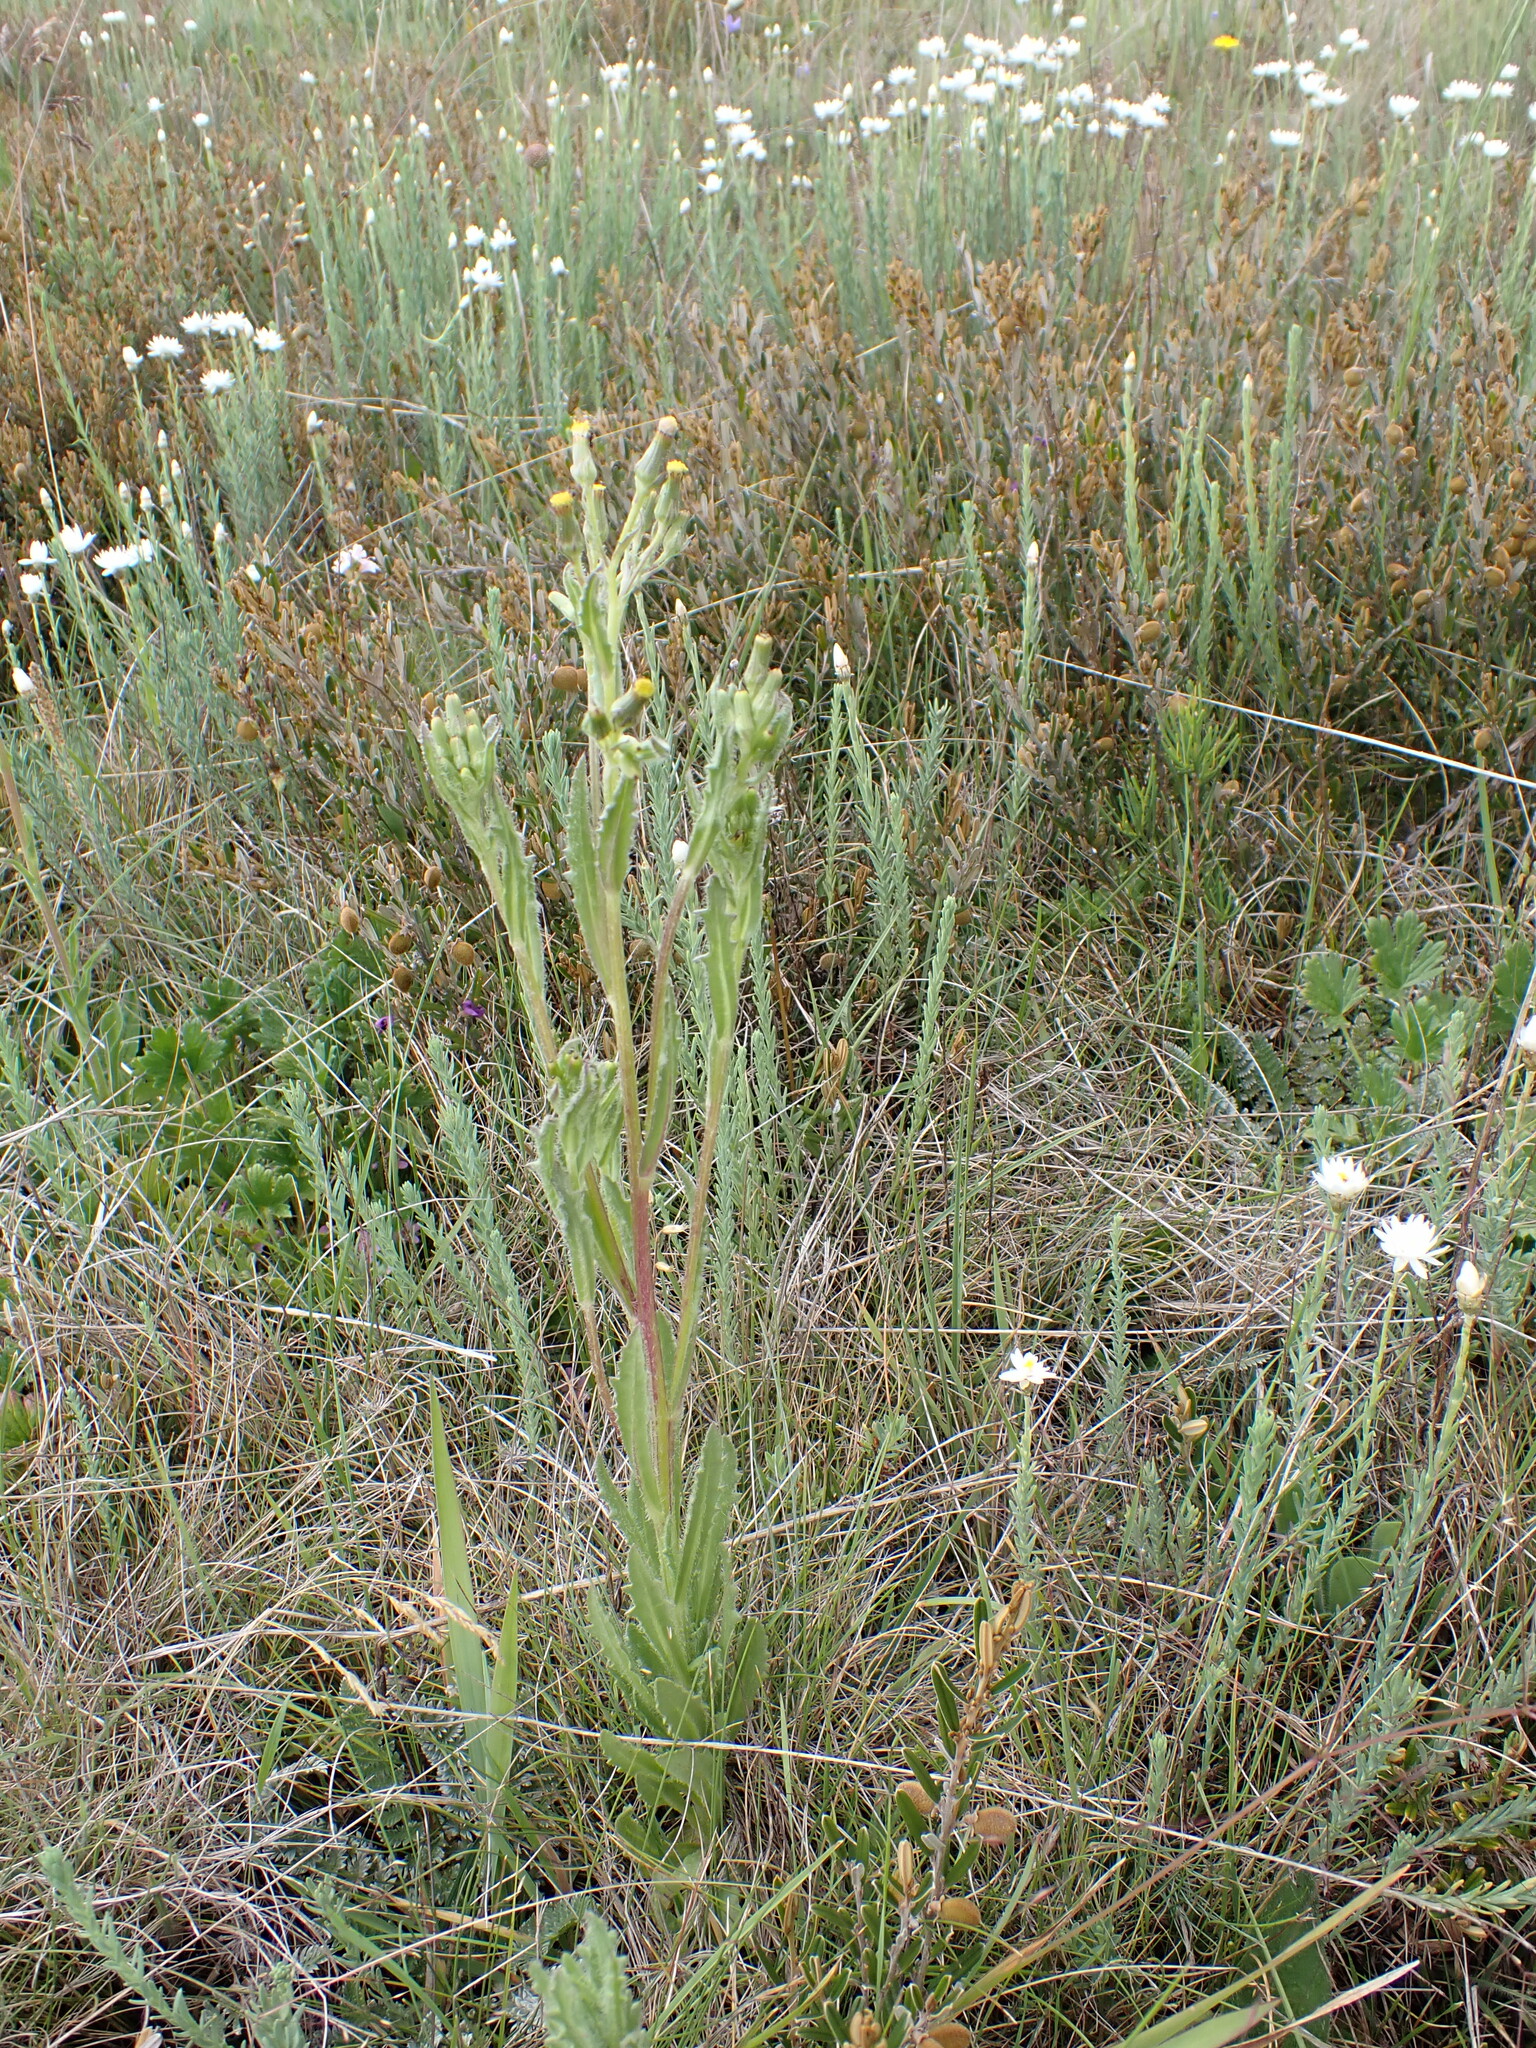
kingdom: Plantae
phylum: Tracheophyta
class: Magnoliopsida
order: Asterales
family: Asteraceae
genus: Senecio
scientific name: Senecio nigrapicus
